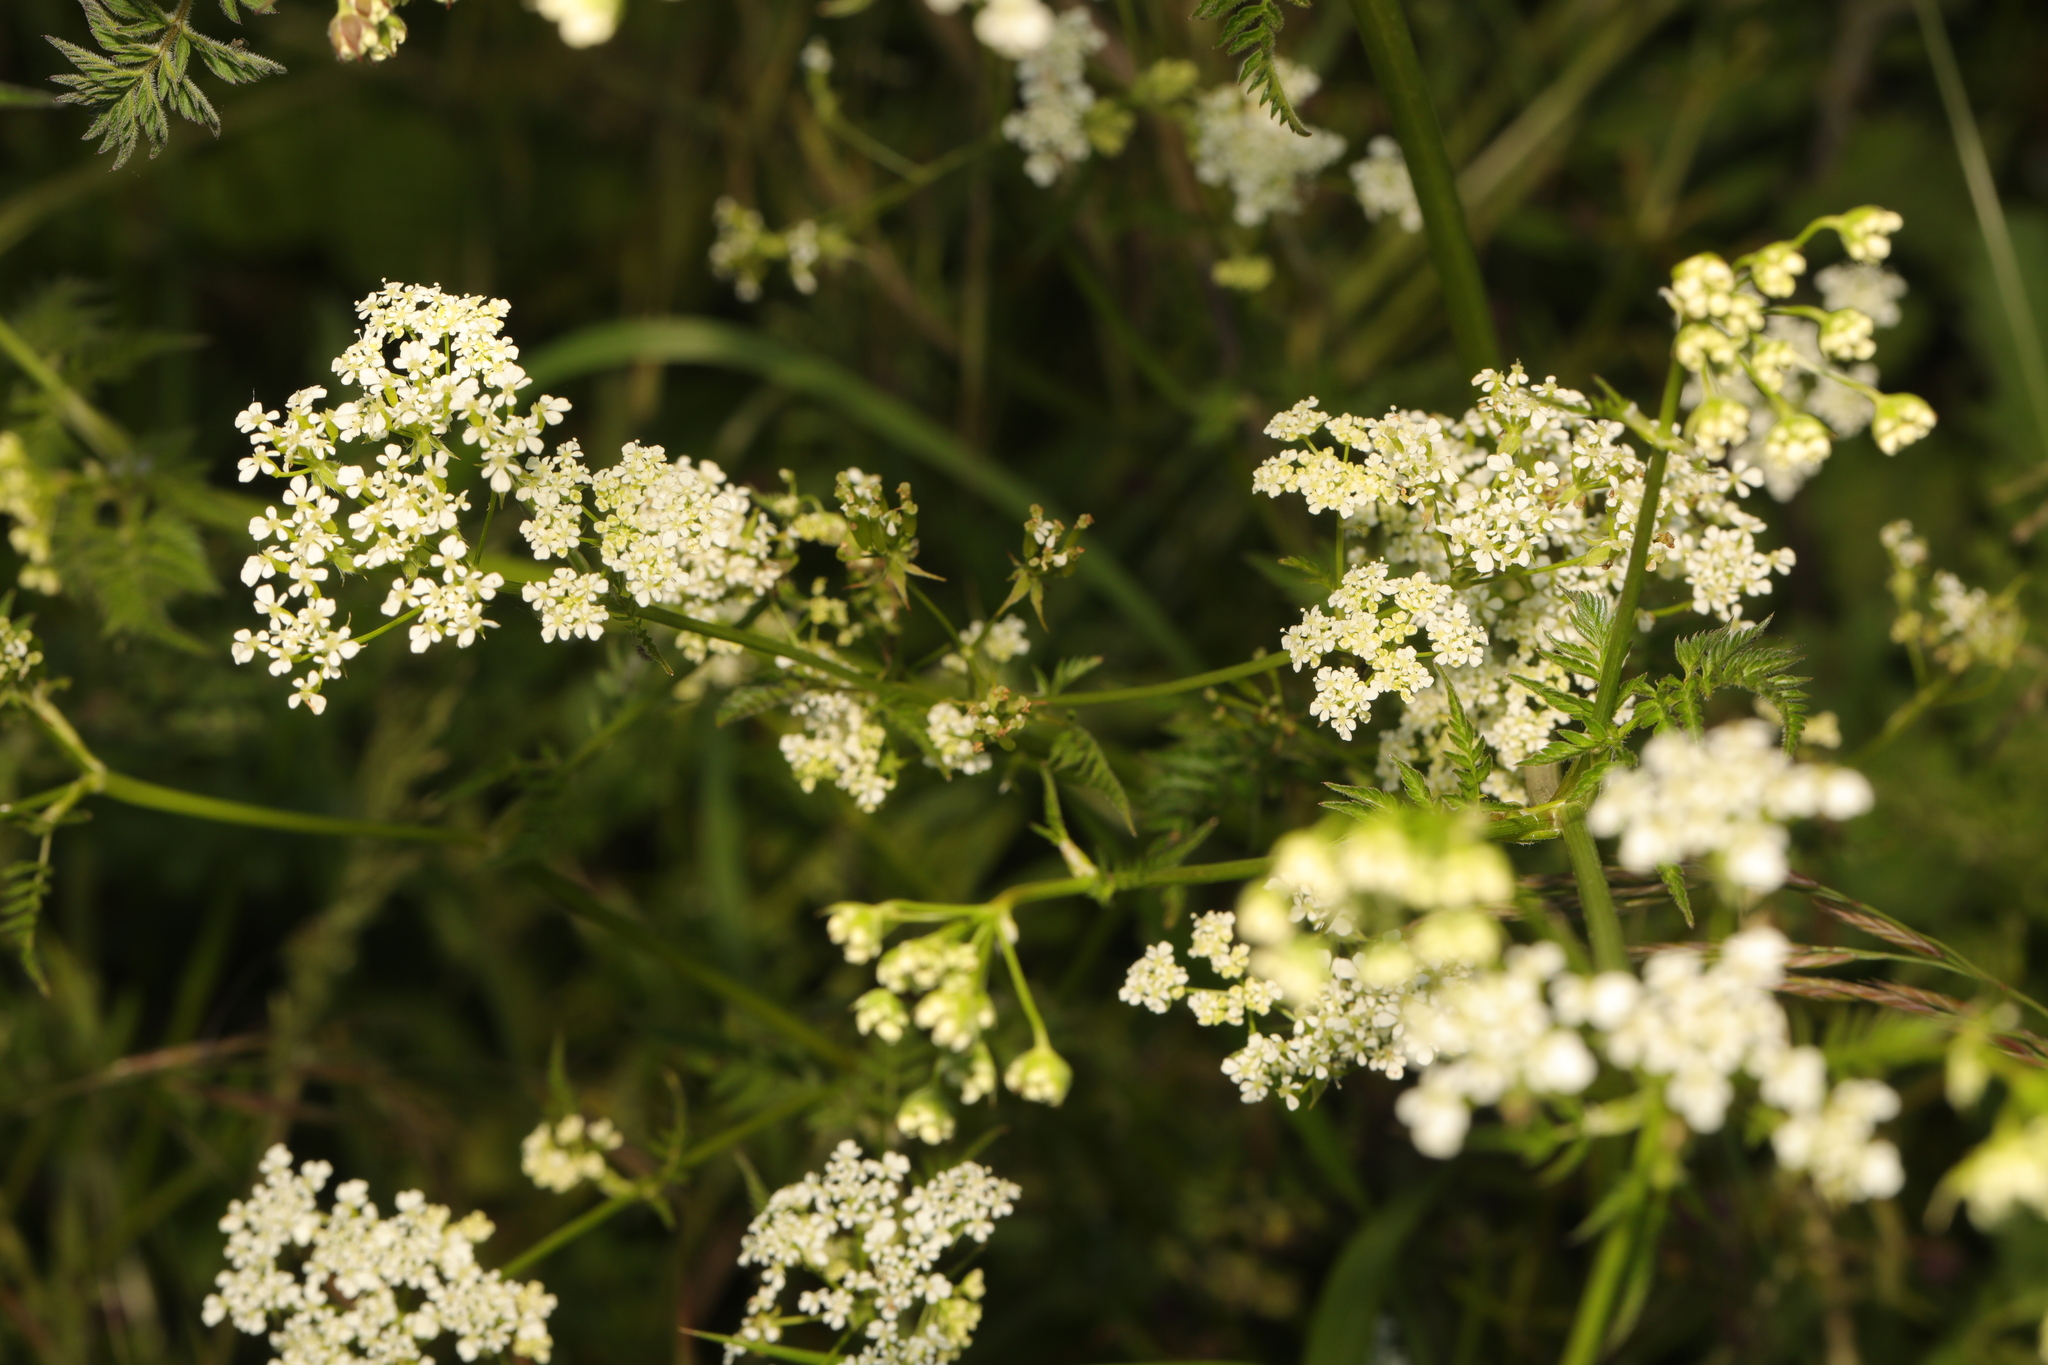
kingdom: Plantae
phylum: Tracheophyta
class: Magnoliopsida
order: Apiales
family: Apiaceae
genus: Anthriscus
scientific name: Anthriscus sylvestris
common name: Cow parsley
